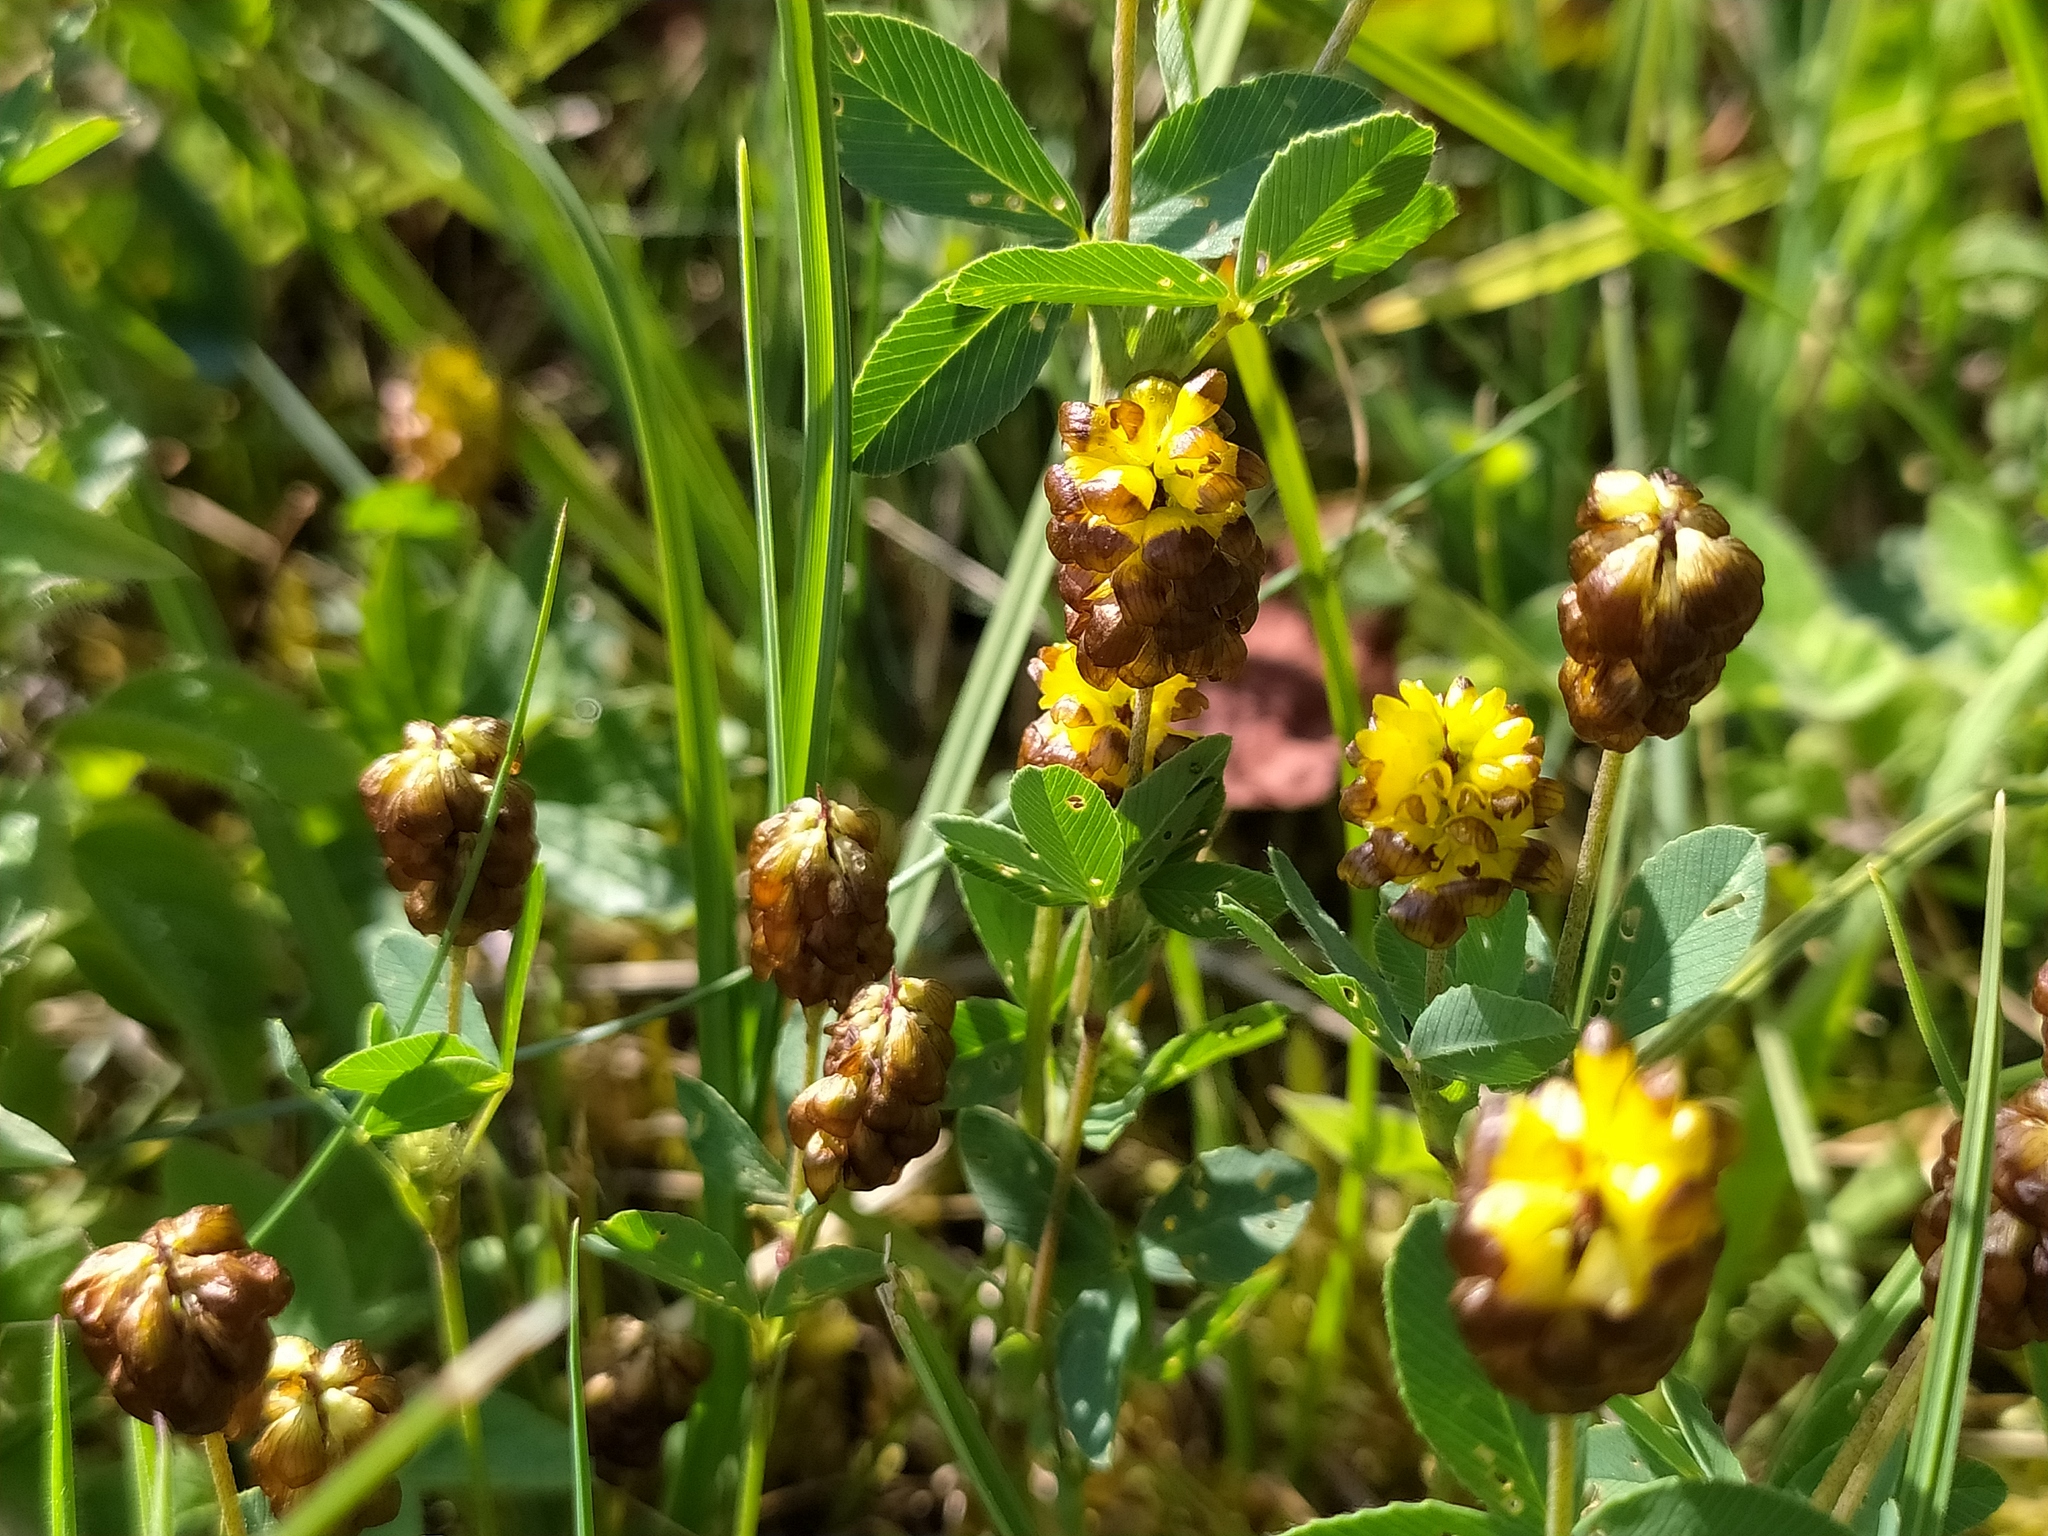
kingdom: Plantae
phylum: Tracheophyta
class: Magnoliopsida
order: Fabales
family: Fabaceae
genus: Trifolium
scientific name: Trifolium spadiceum
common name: Brown moor clover
